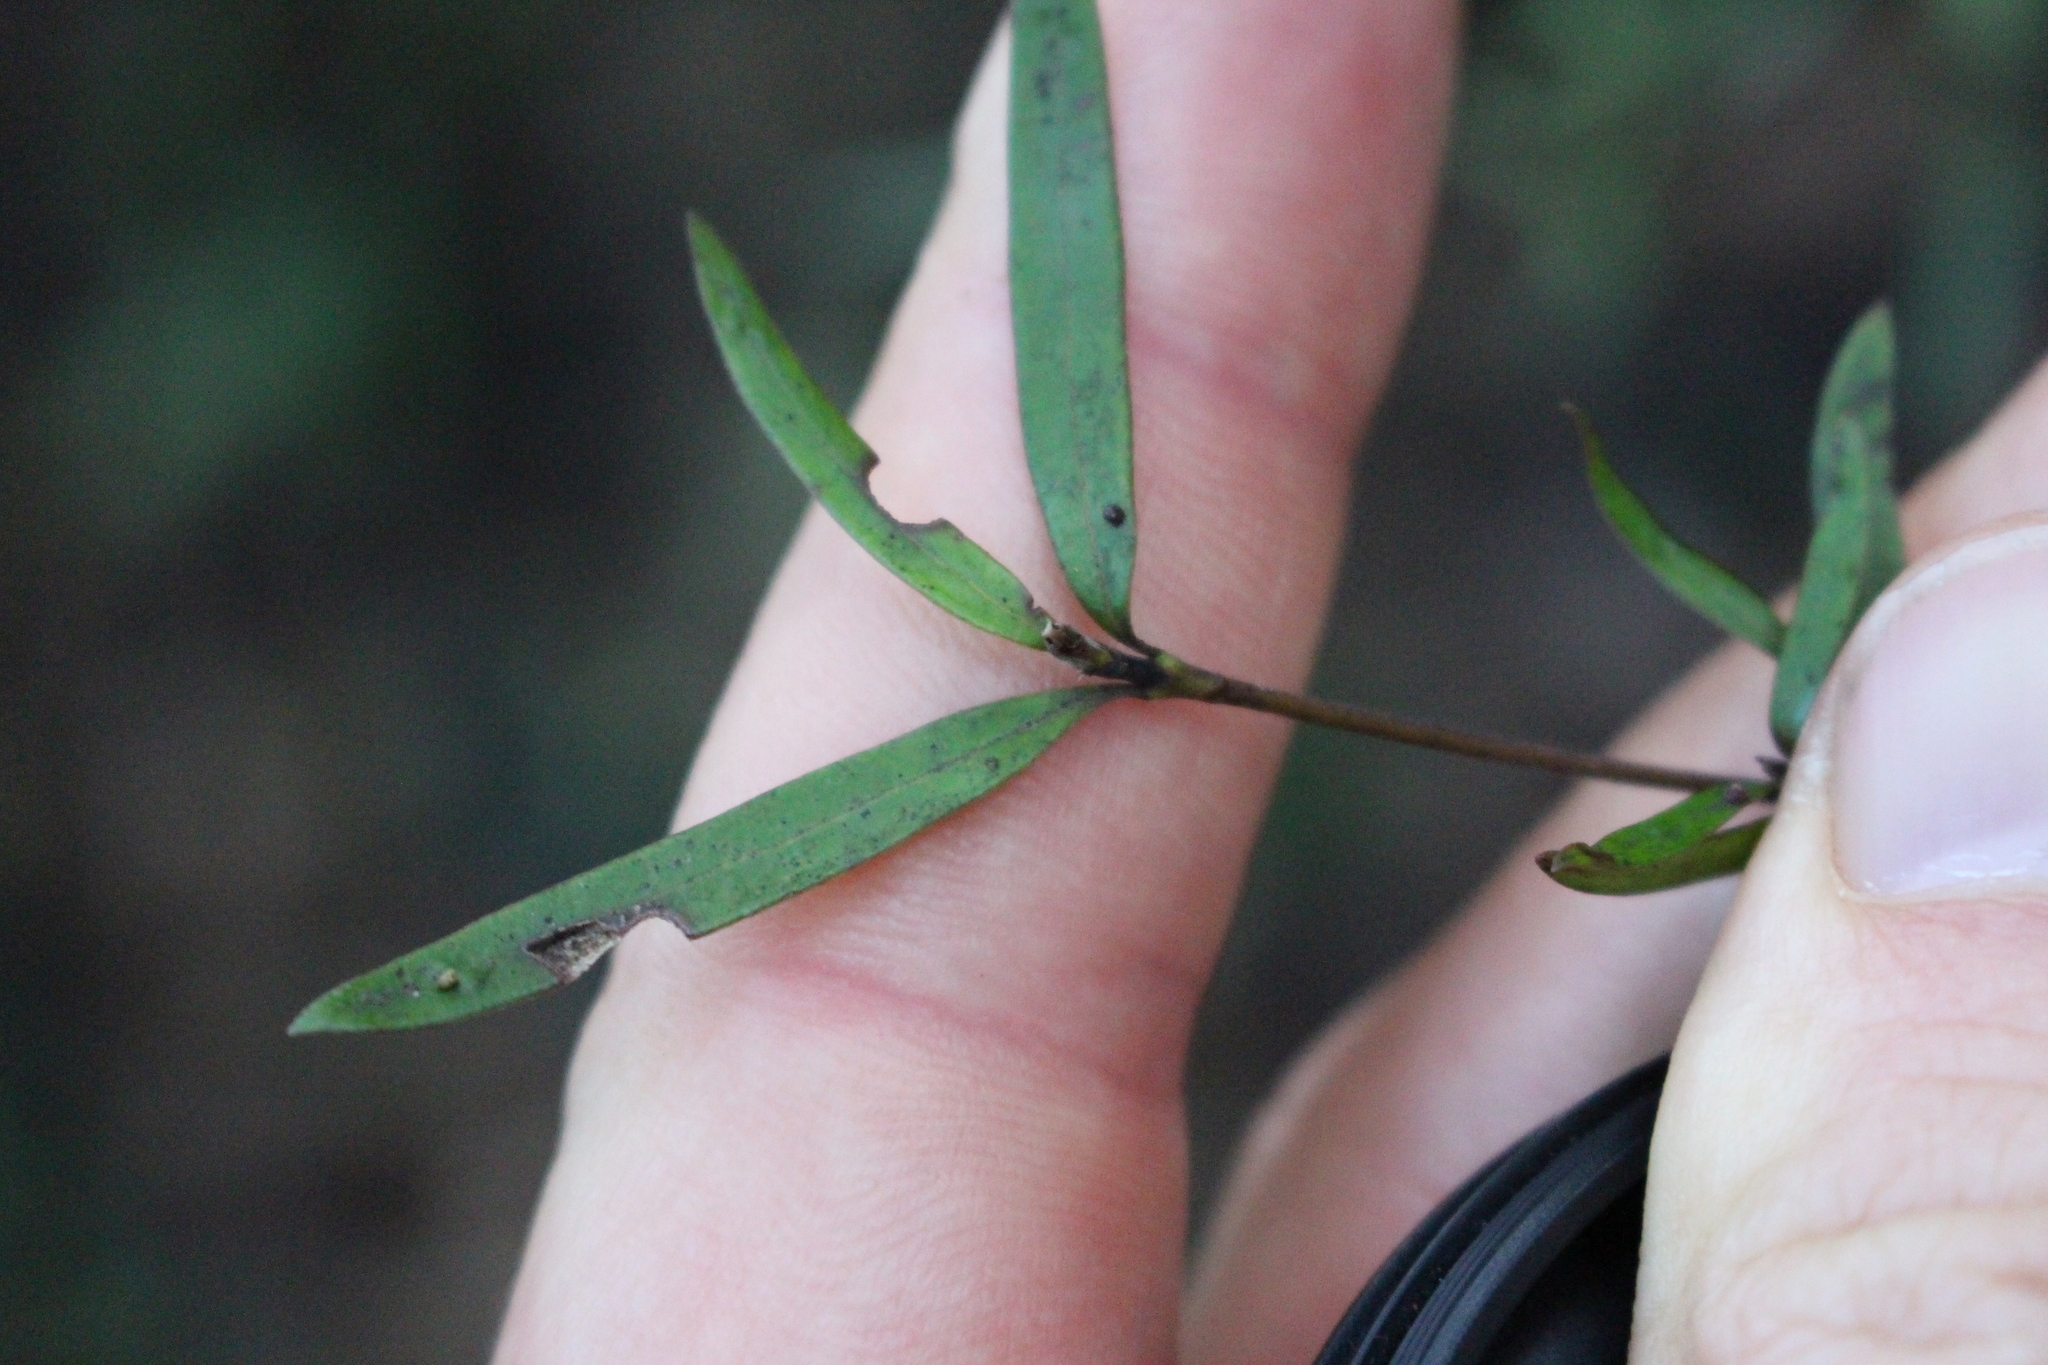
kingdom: Plantae
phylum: Tracheophyta
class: Magnoliopsida
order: Gentianales
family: Rubiaceae
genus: Coprosma
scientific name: Coprosma linariifolia
